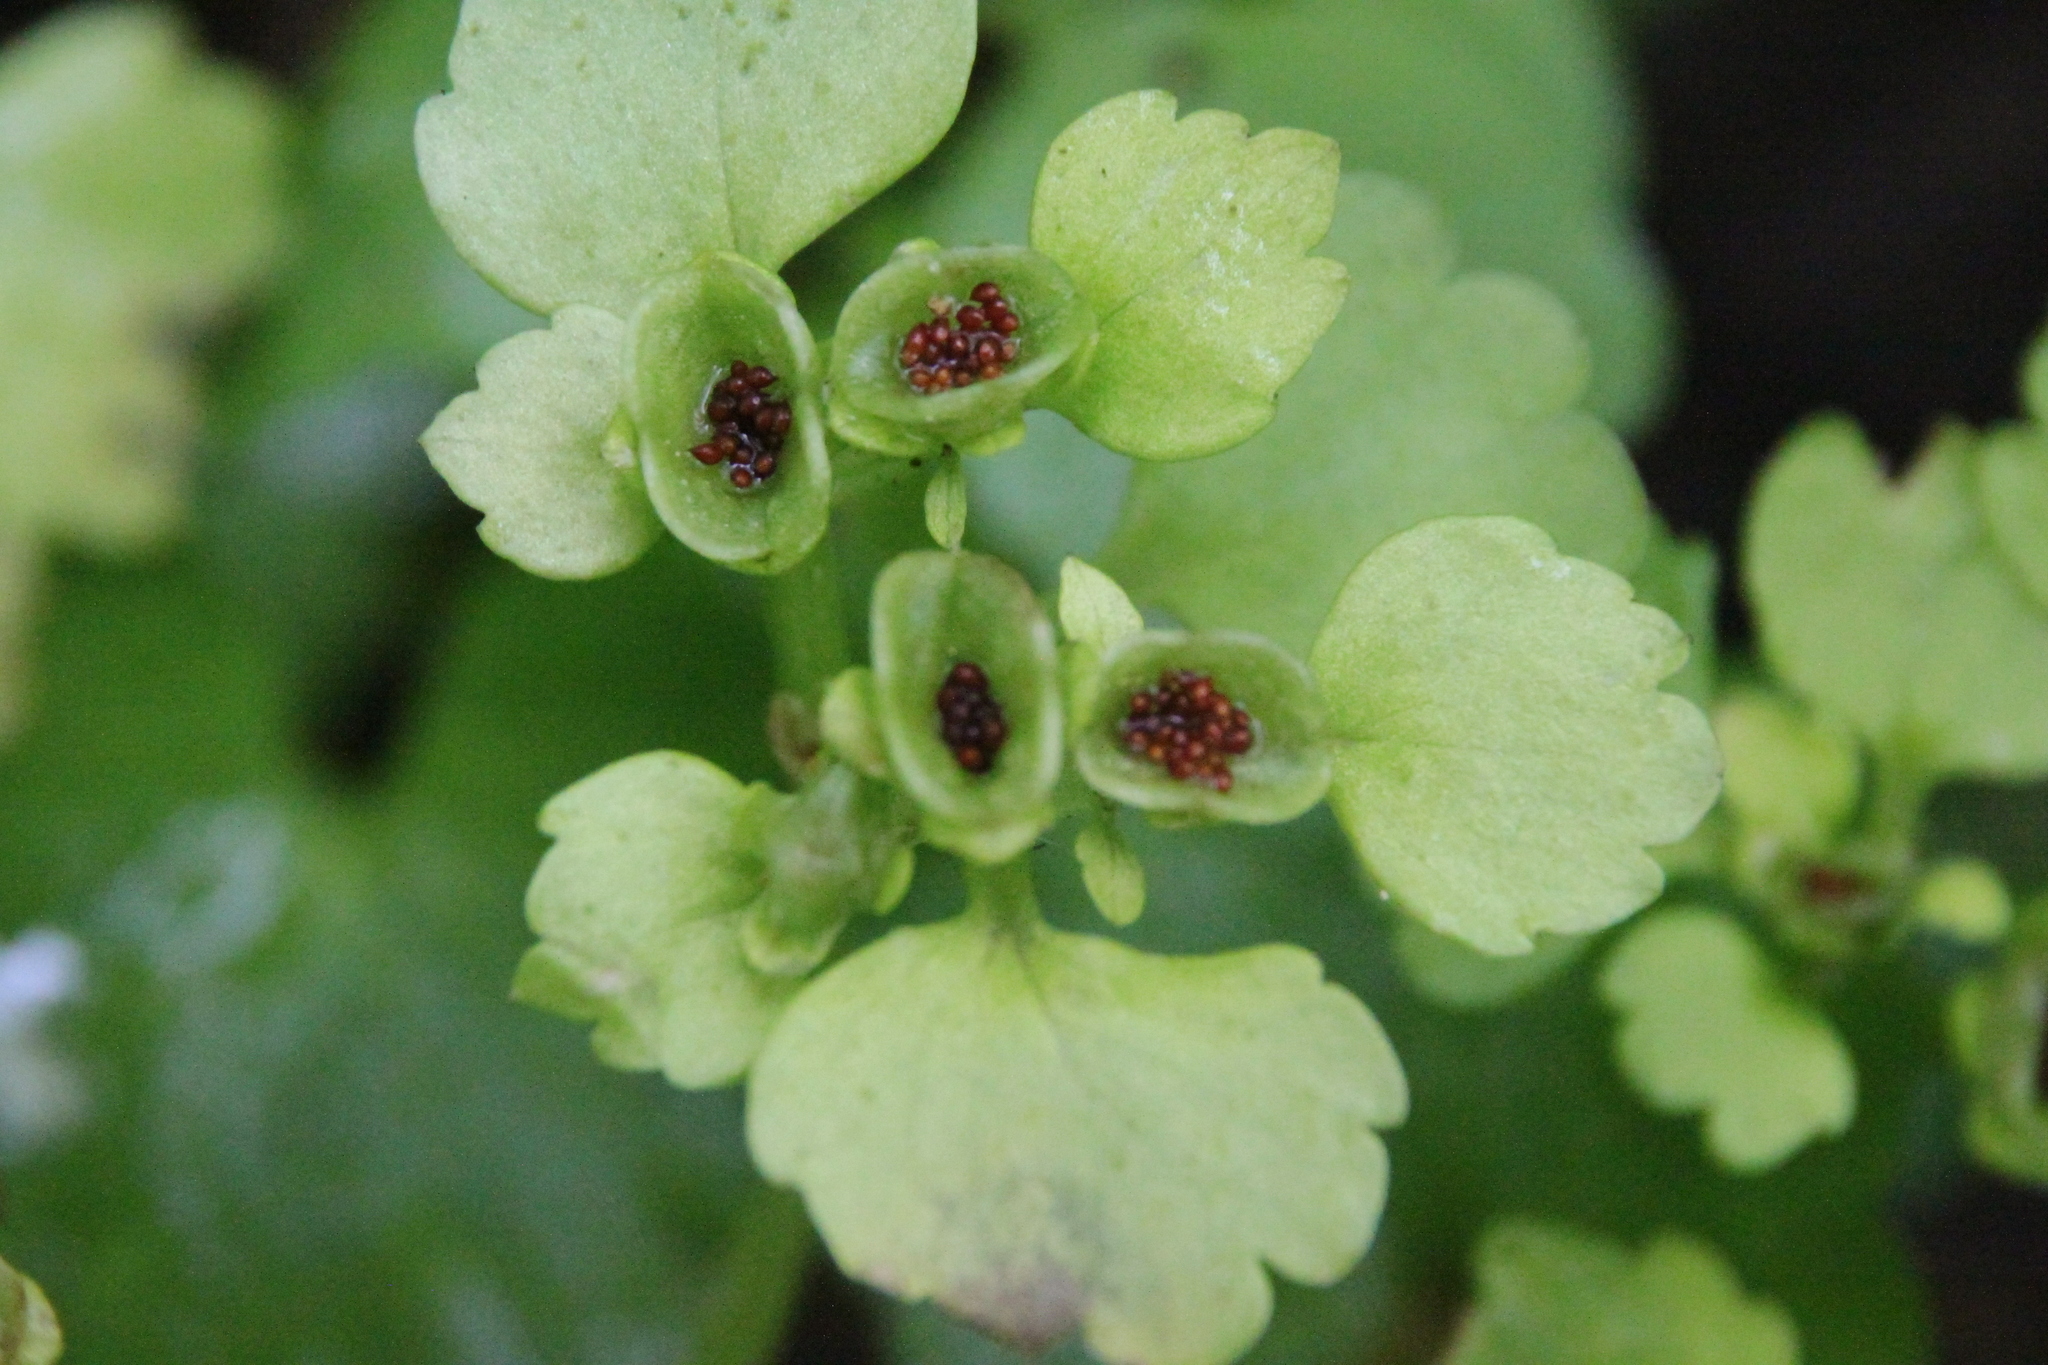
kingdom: Plantae
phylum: Tracheophyta
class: Magnoliopsida
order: Saxifragales
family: Saxifragaceae
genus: Chrysosplenium
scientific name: Chrysosplenium alternifolium
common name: Alternate-leaved golden-saxifrage
